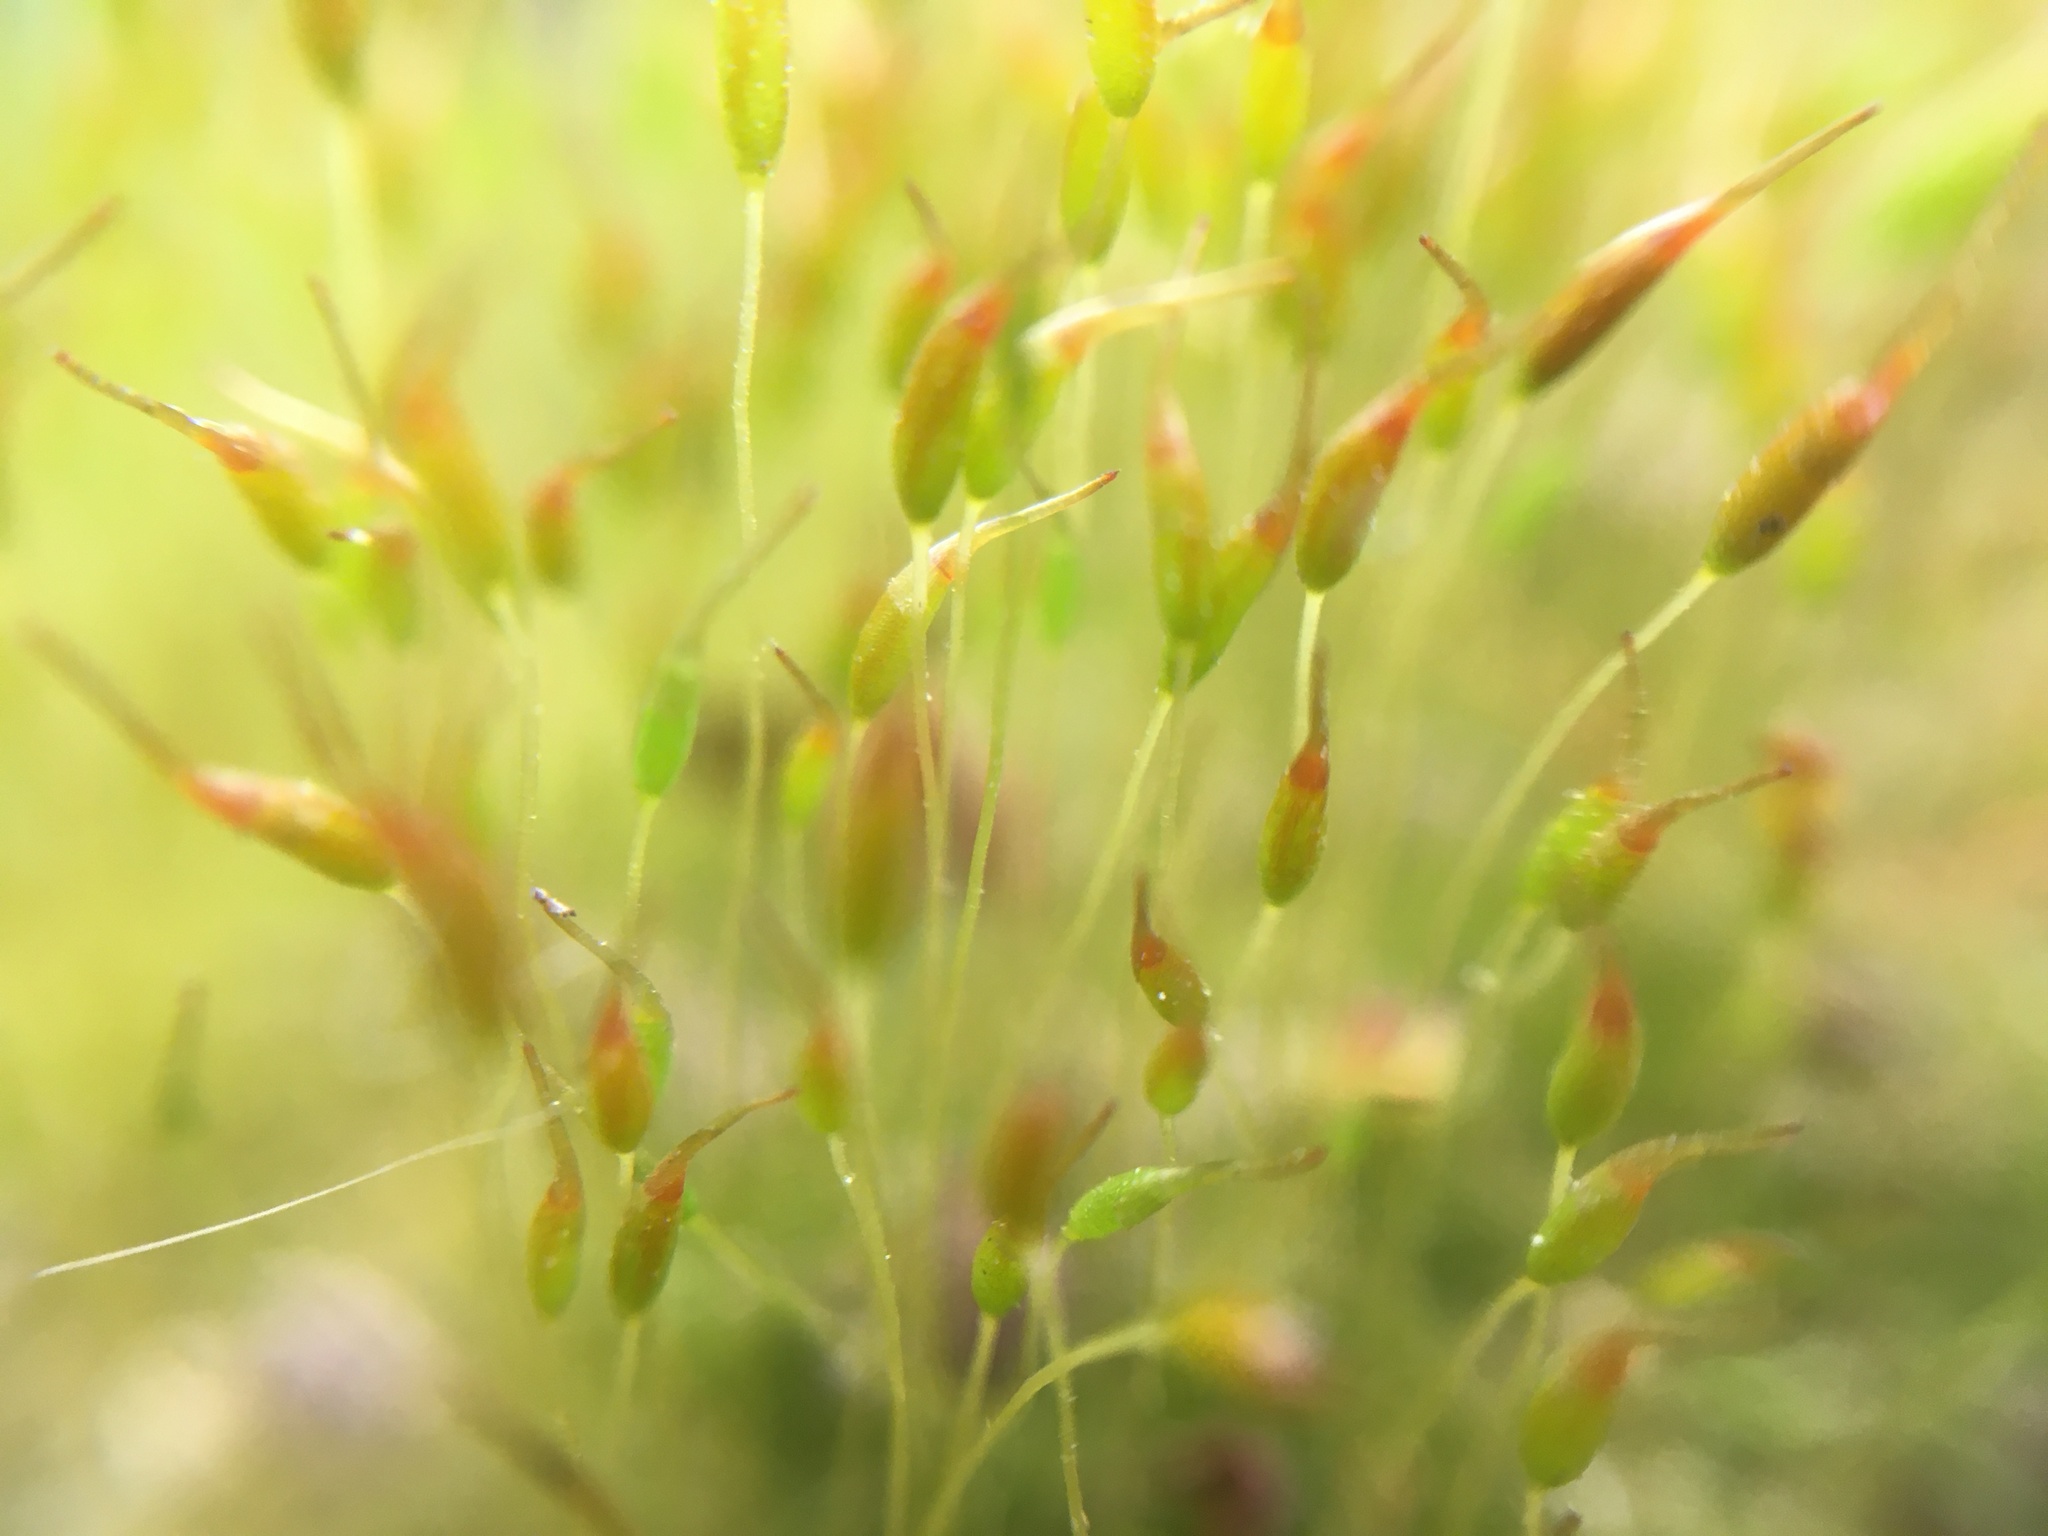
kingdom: Plantae
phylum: Bryophyta
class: Bryopsida
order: Dicranales
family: Ditrichaceae
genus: Ceratodon
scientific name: Ceratodon purpureus
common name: Redshank
